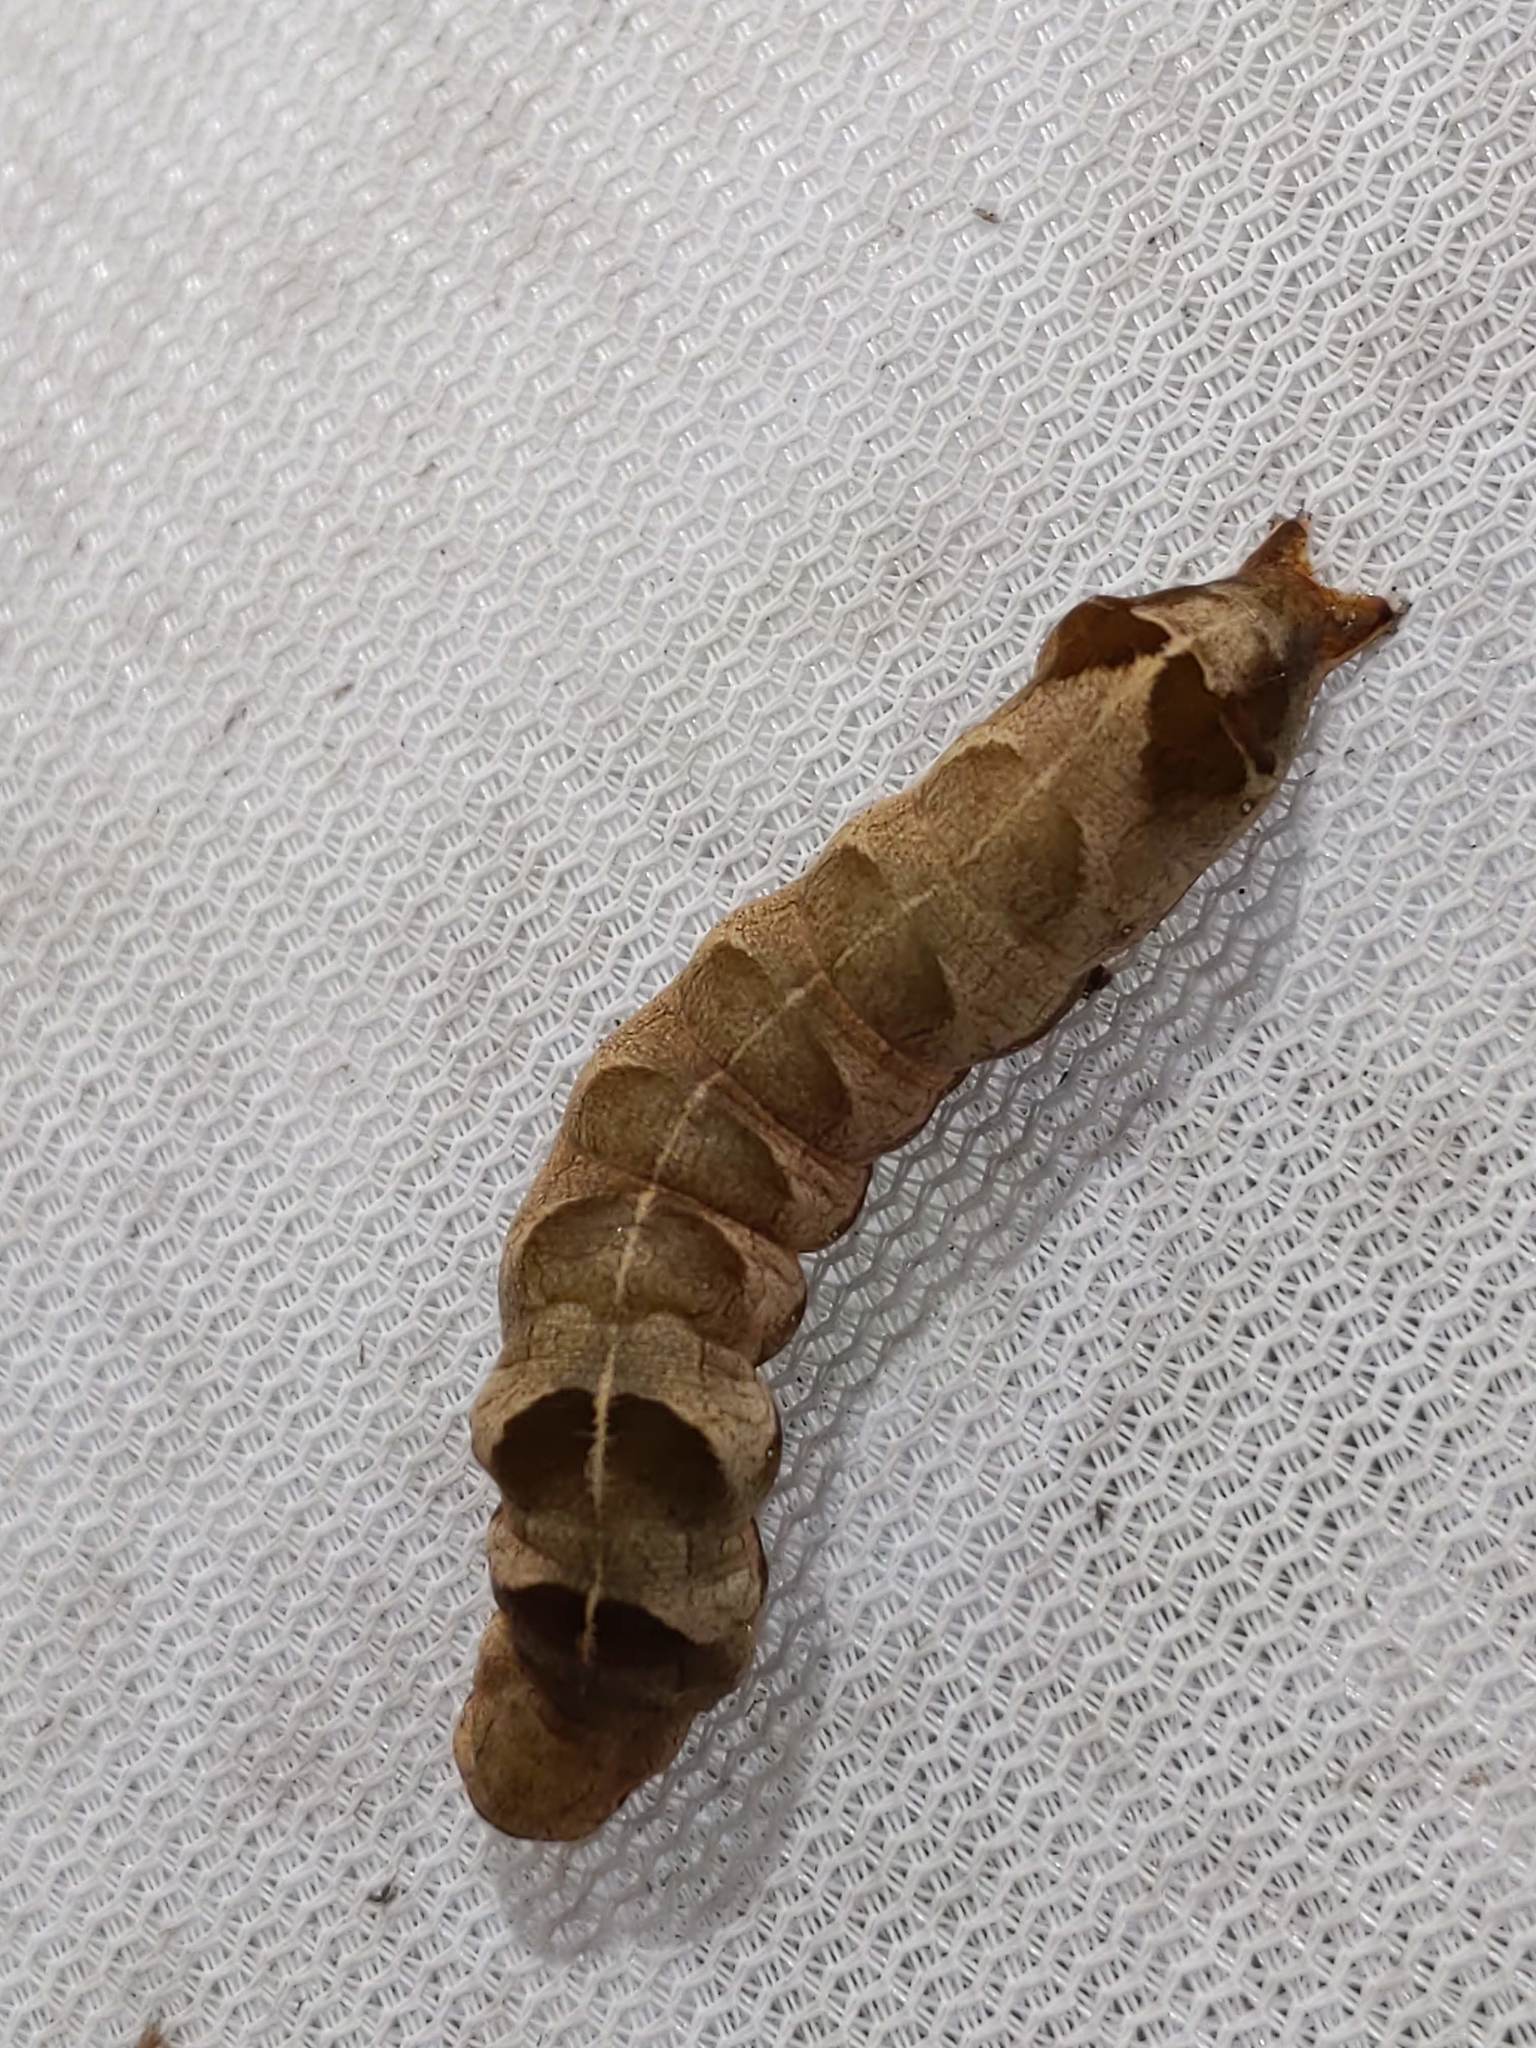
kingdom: Animalia
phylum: Arthropoda
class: Insecta
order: Lepidoptera
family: Noctuidae
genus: Melanchra
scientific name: Melanchra adjuncta
